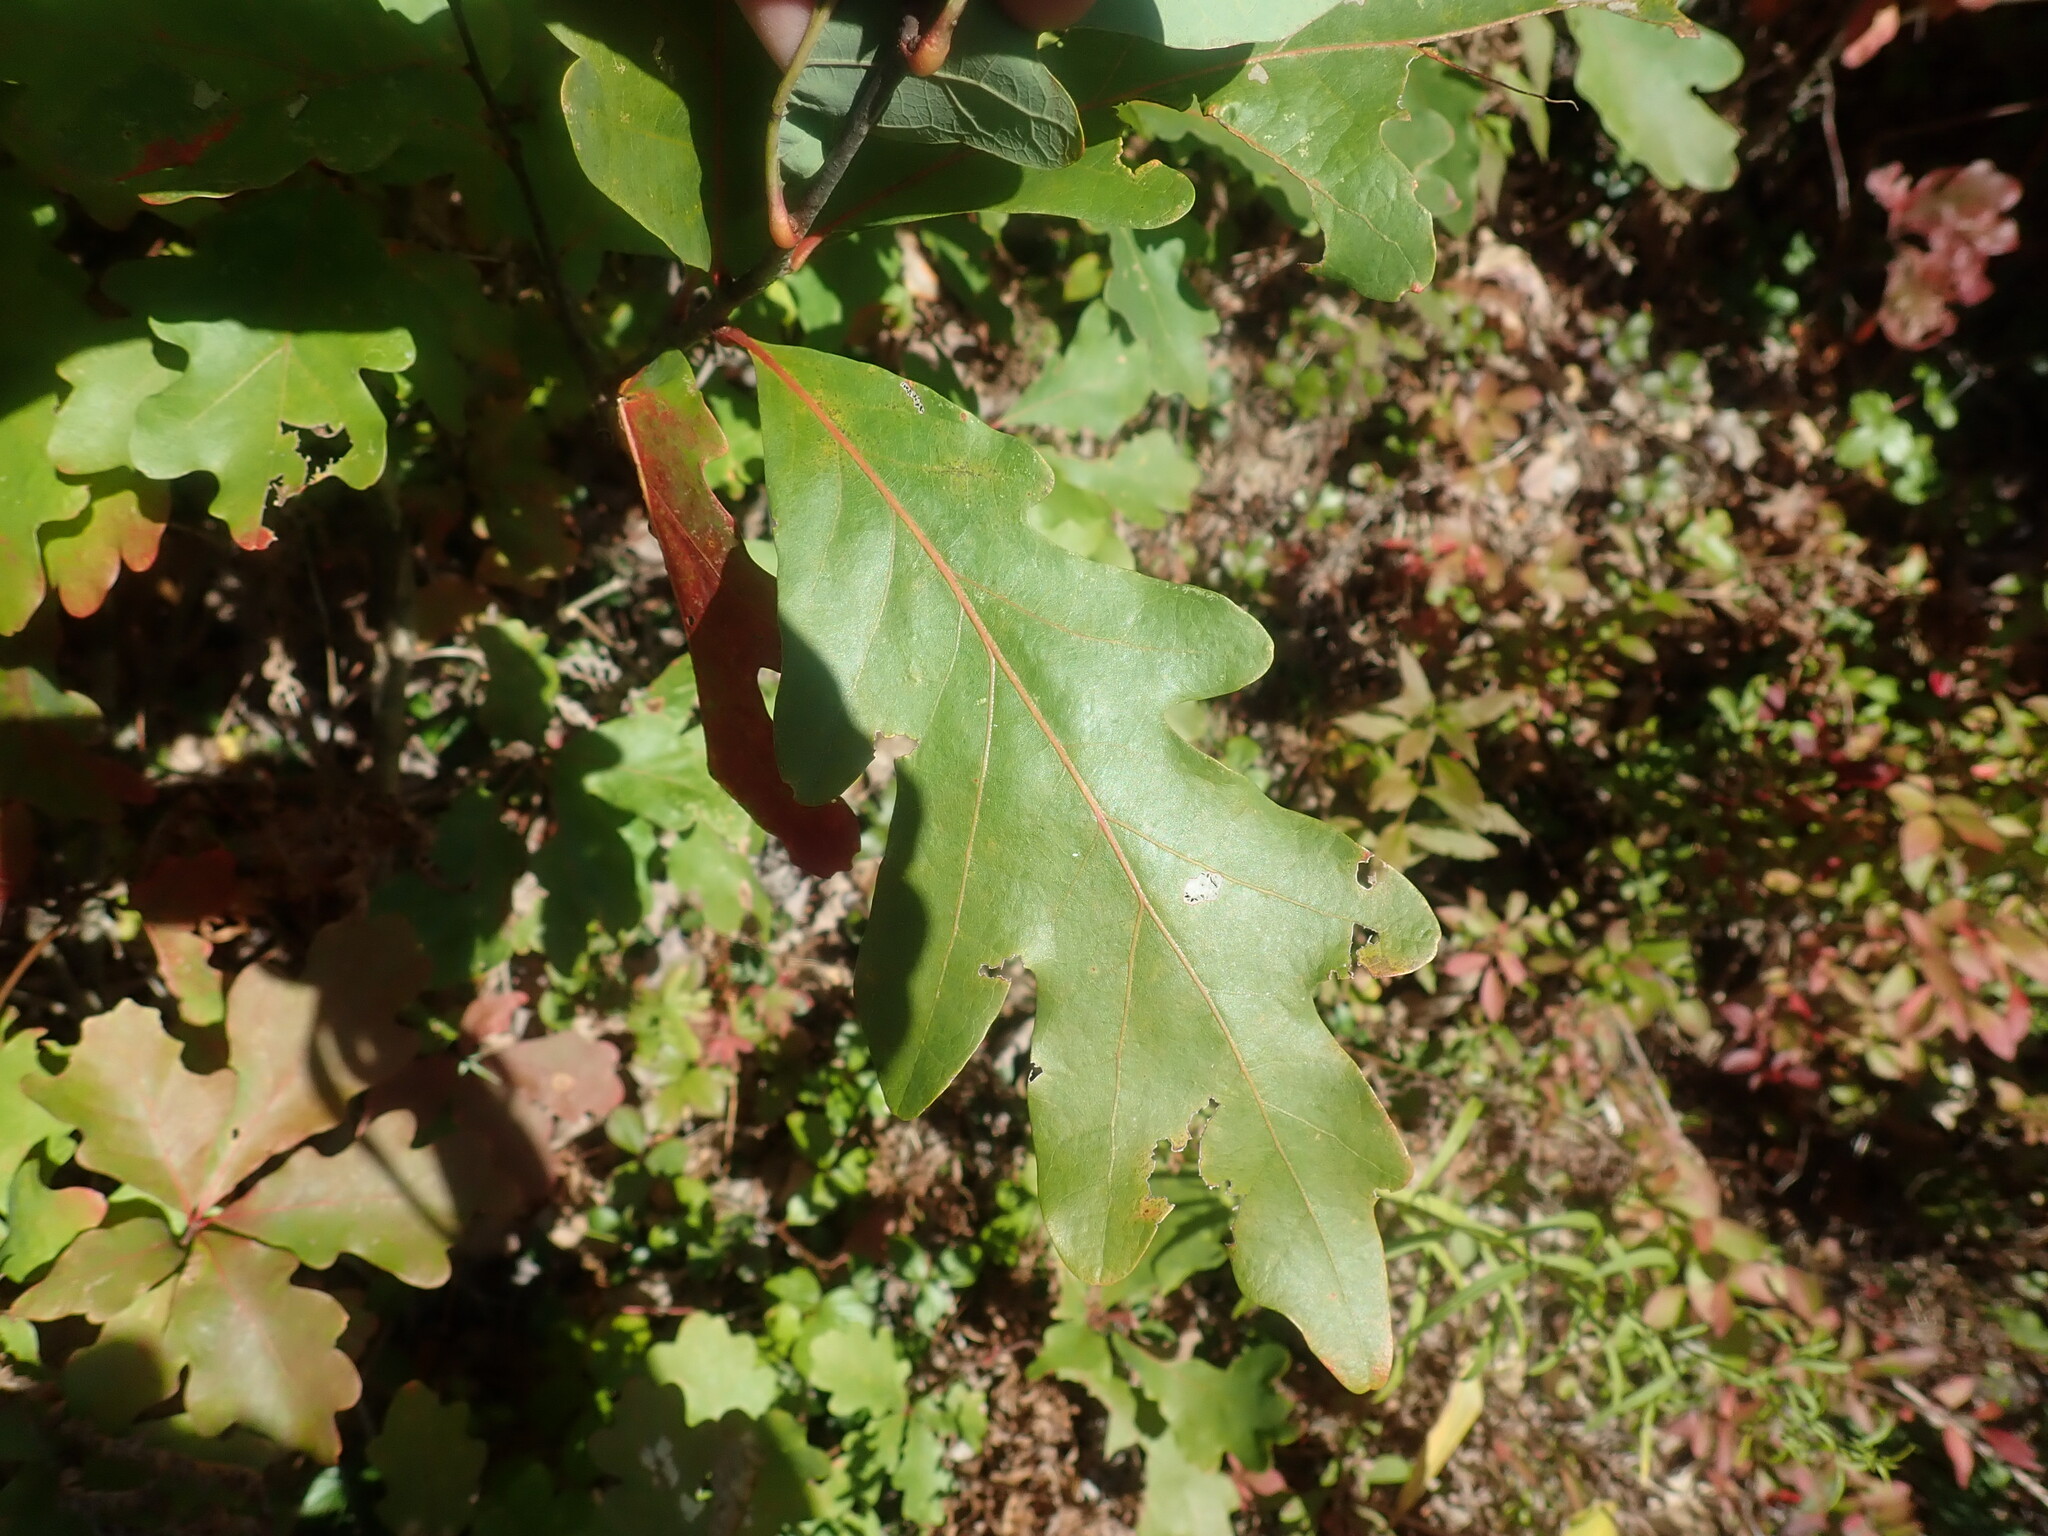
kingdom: Plantae
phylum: Tracheophyta
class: Magnoliopsida
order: Fagales
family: Fagaceae
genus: Quercus
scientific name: Quercus alba
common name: White oak
